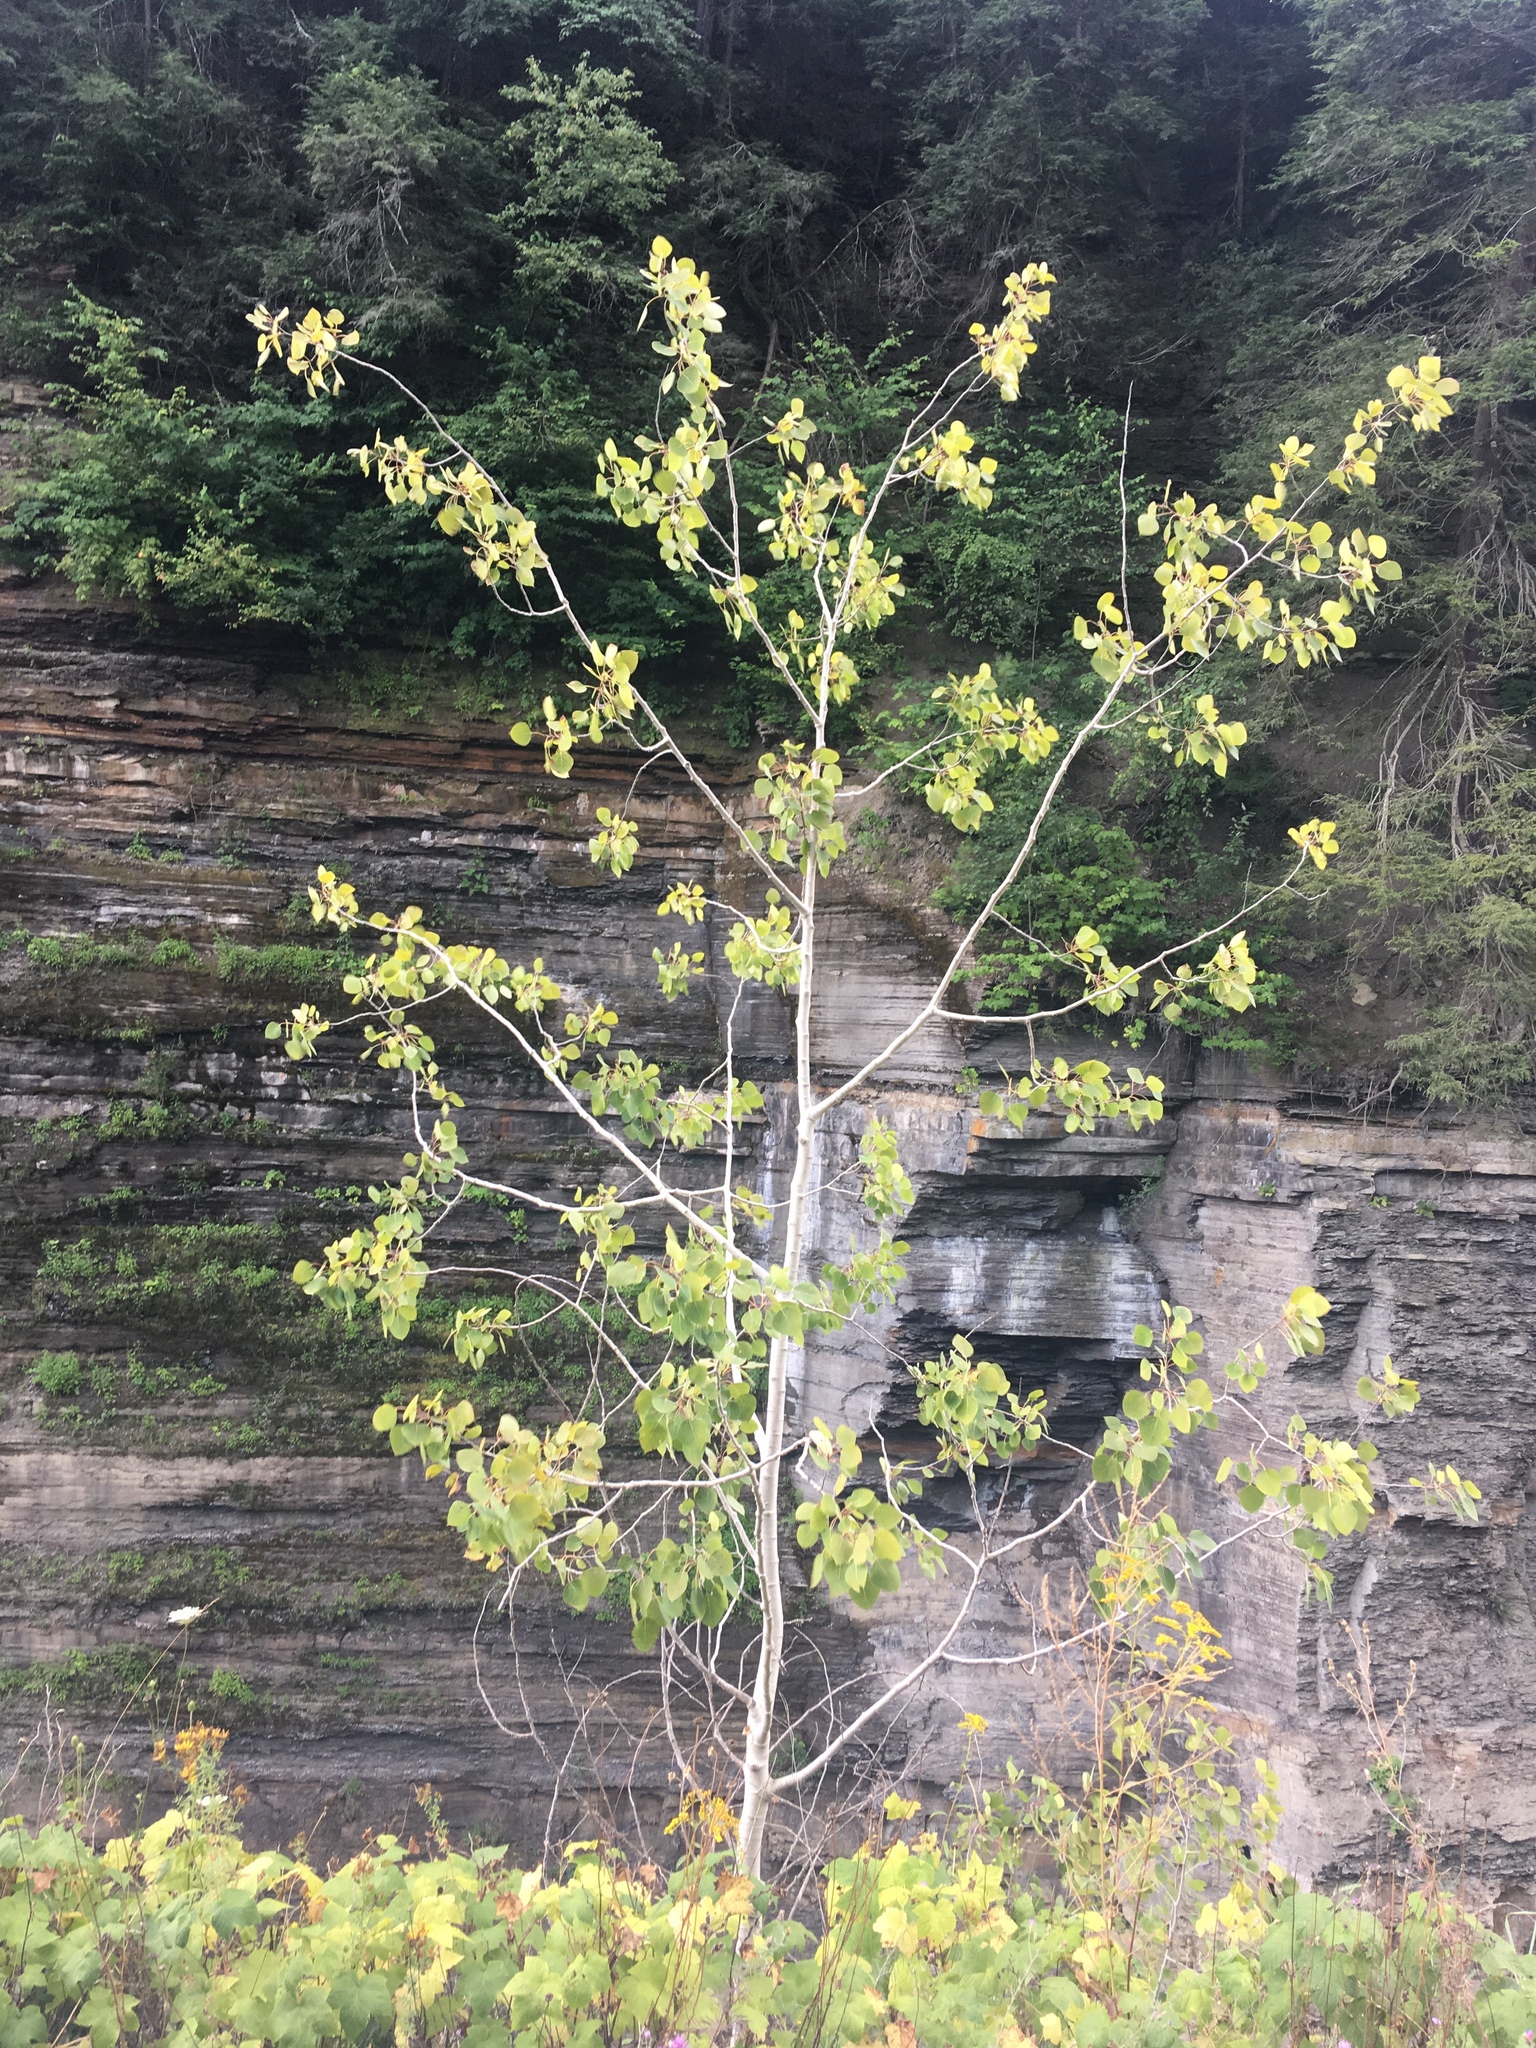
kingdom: Plantae
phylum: Tracheophyta
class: Magnoliopsida
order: Malpighiales
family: Salicaceae
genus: Populus
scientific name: Populus tremuloides
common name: Quaking aspen
